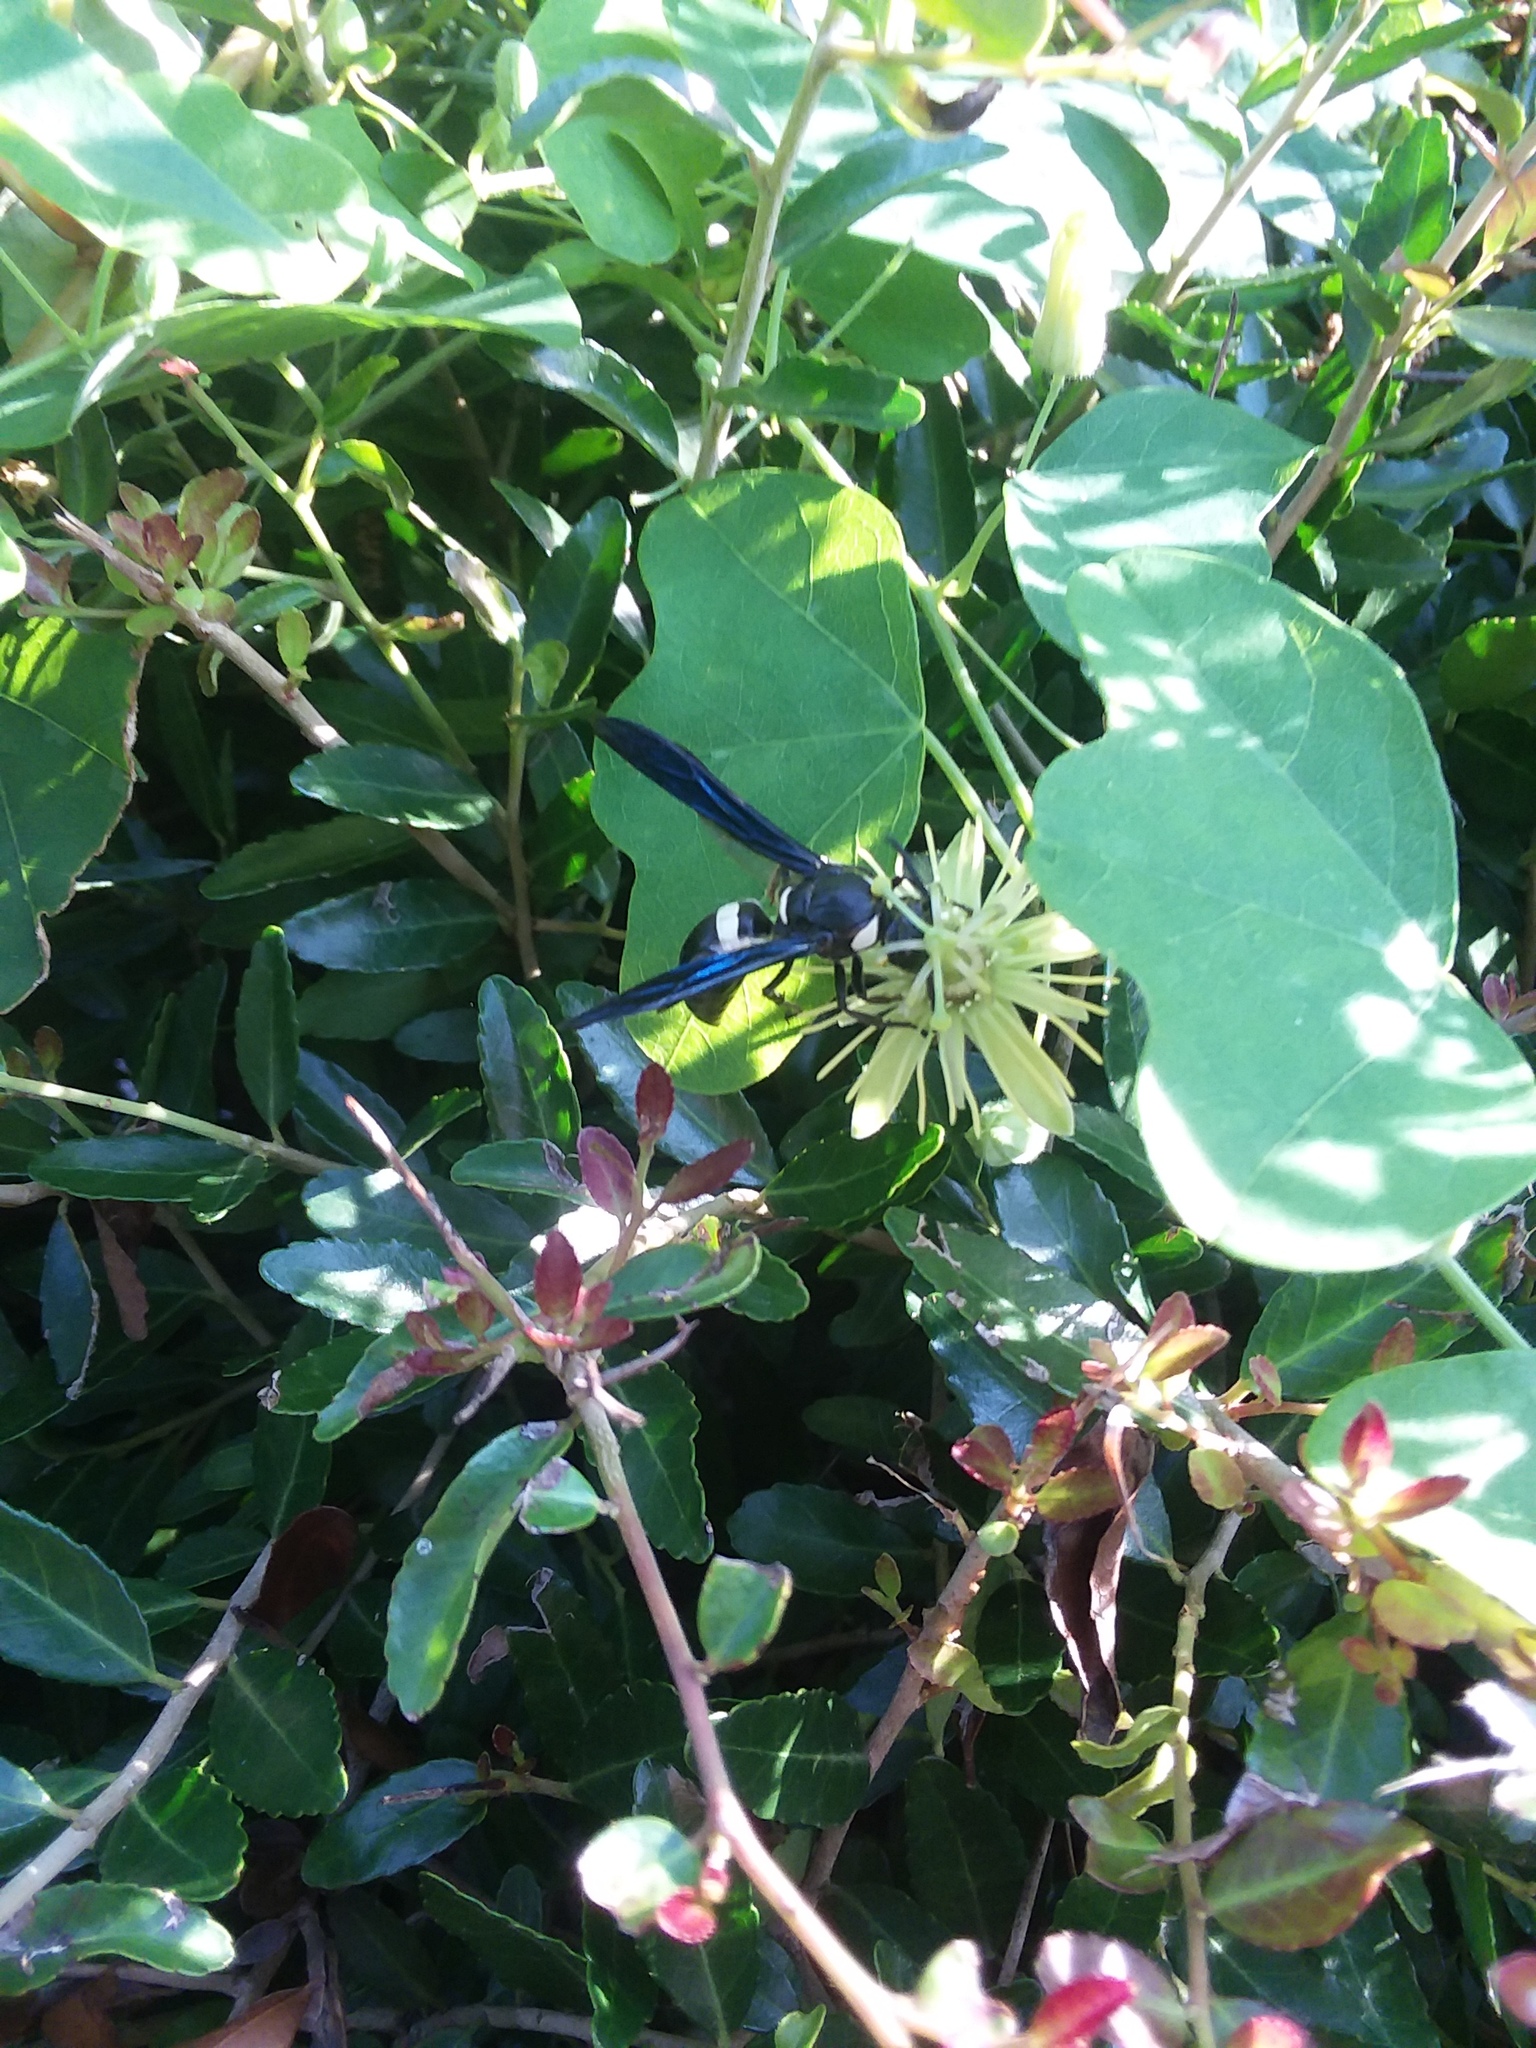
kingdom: Animalia
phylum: Arthropoda
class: Insecta
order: Hymenoptera
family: Eumenidae
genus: Monobia
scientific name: Monobia quadridens
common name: Four-toothed mason wasp
